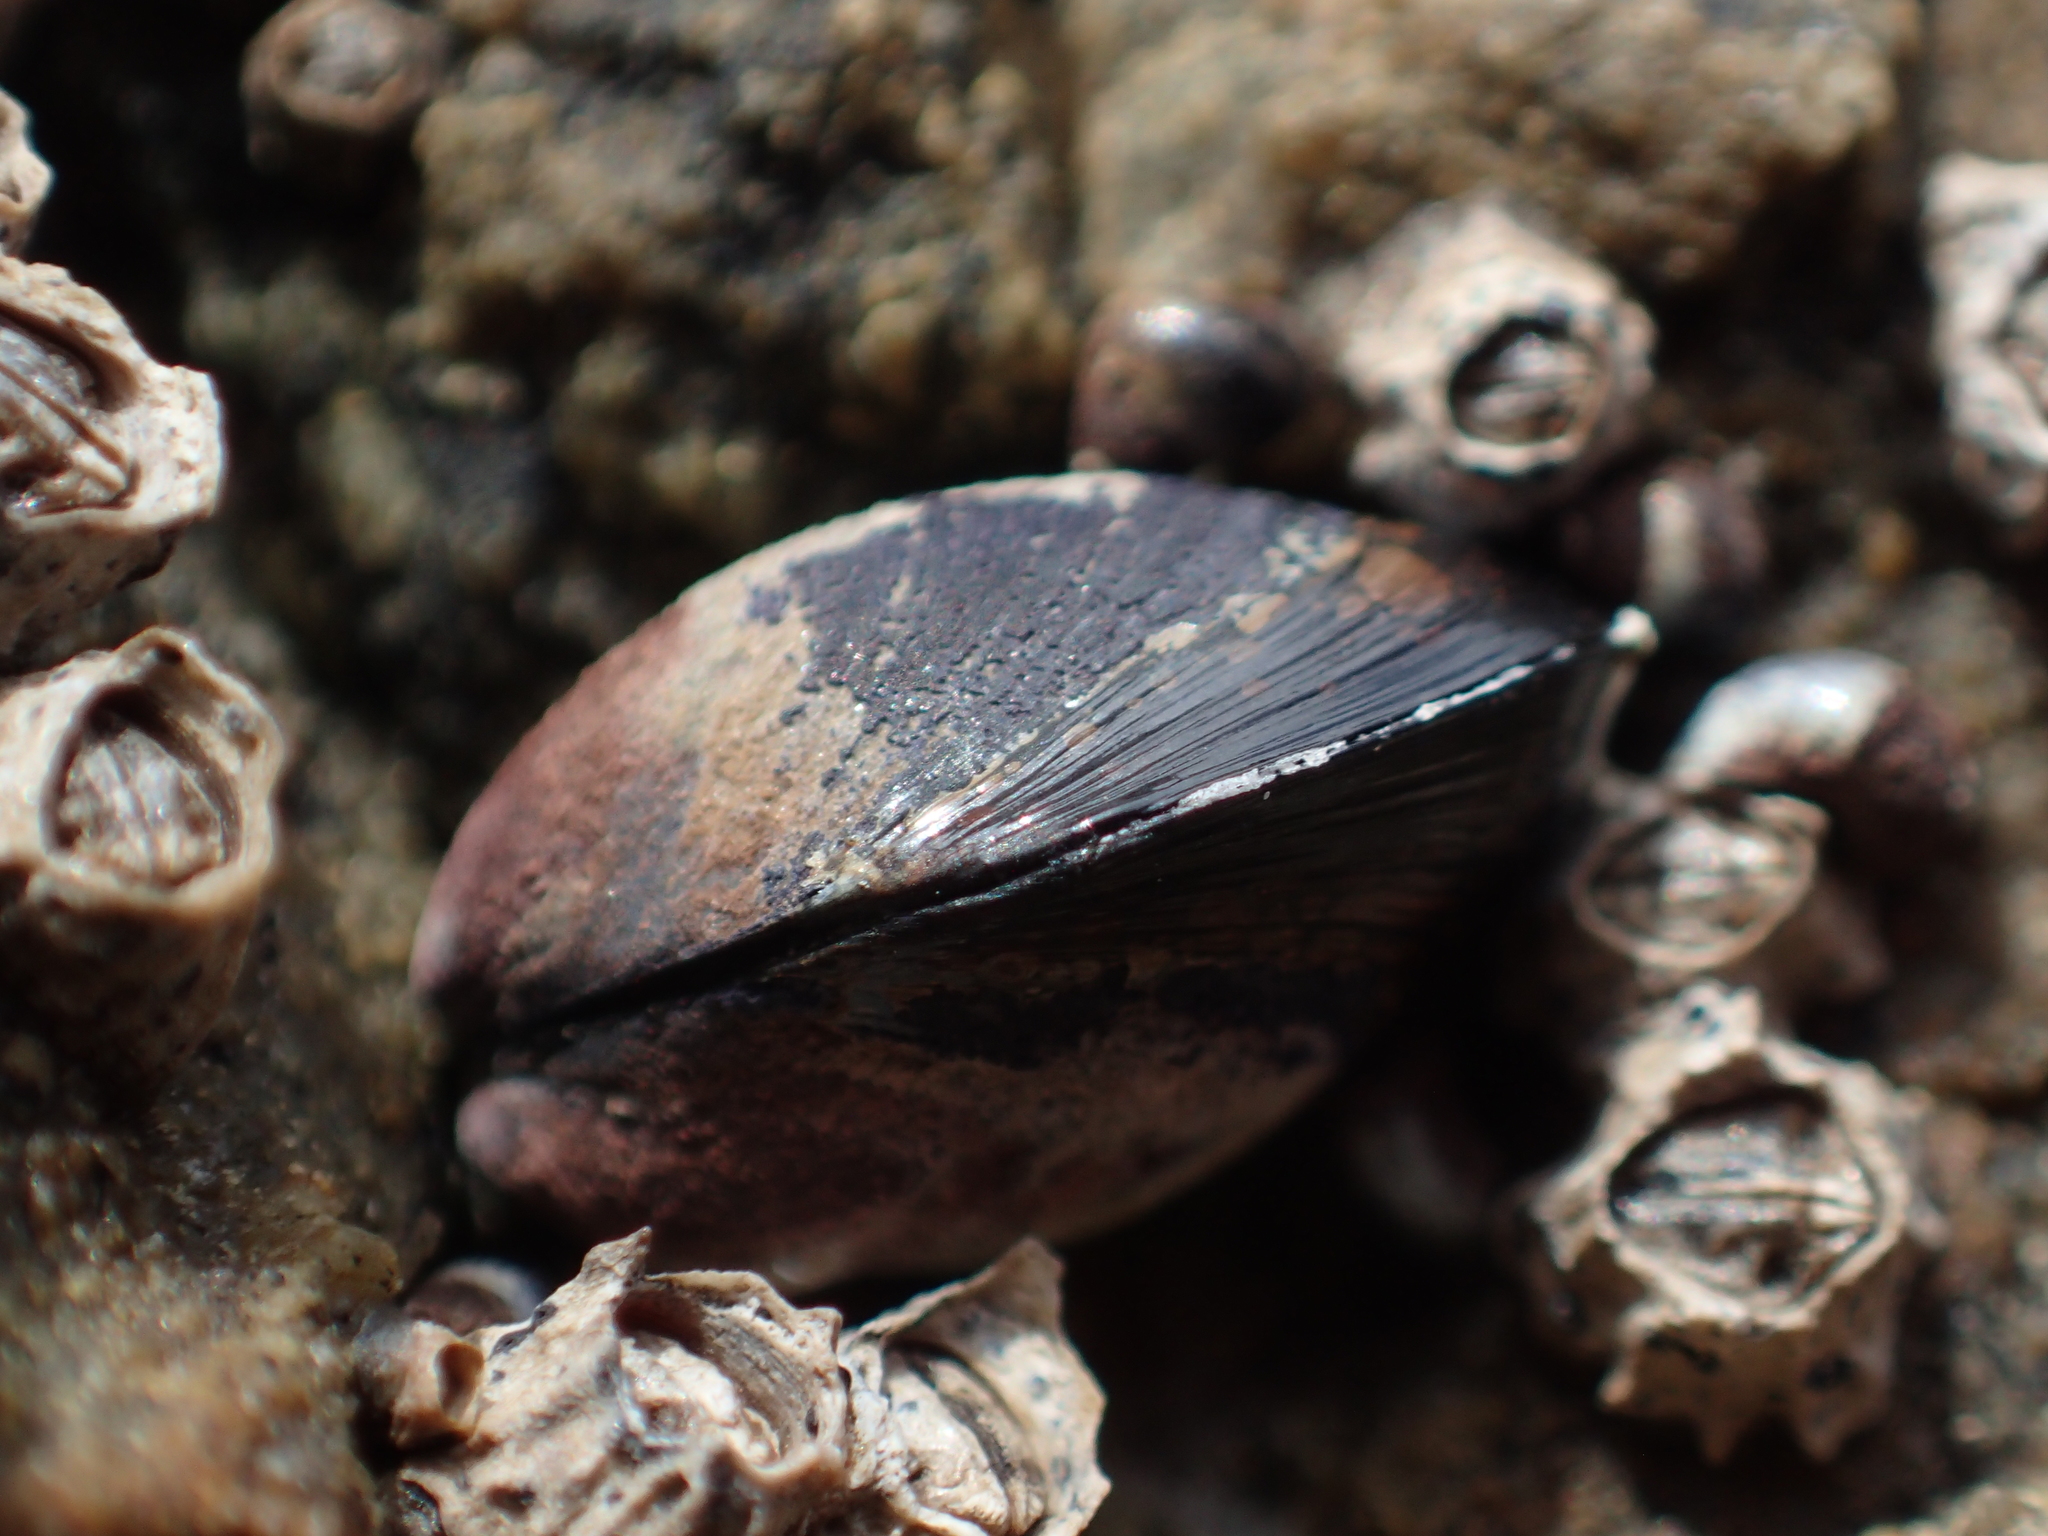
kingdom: Animalia
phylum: Mollusca
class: Bivalvia
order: Mytilida
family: Mytilidae
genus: Xenostrobus
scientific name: Xenostrobus neozelanicus
